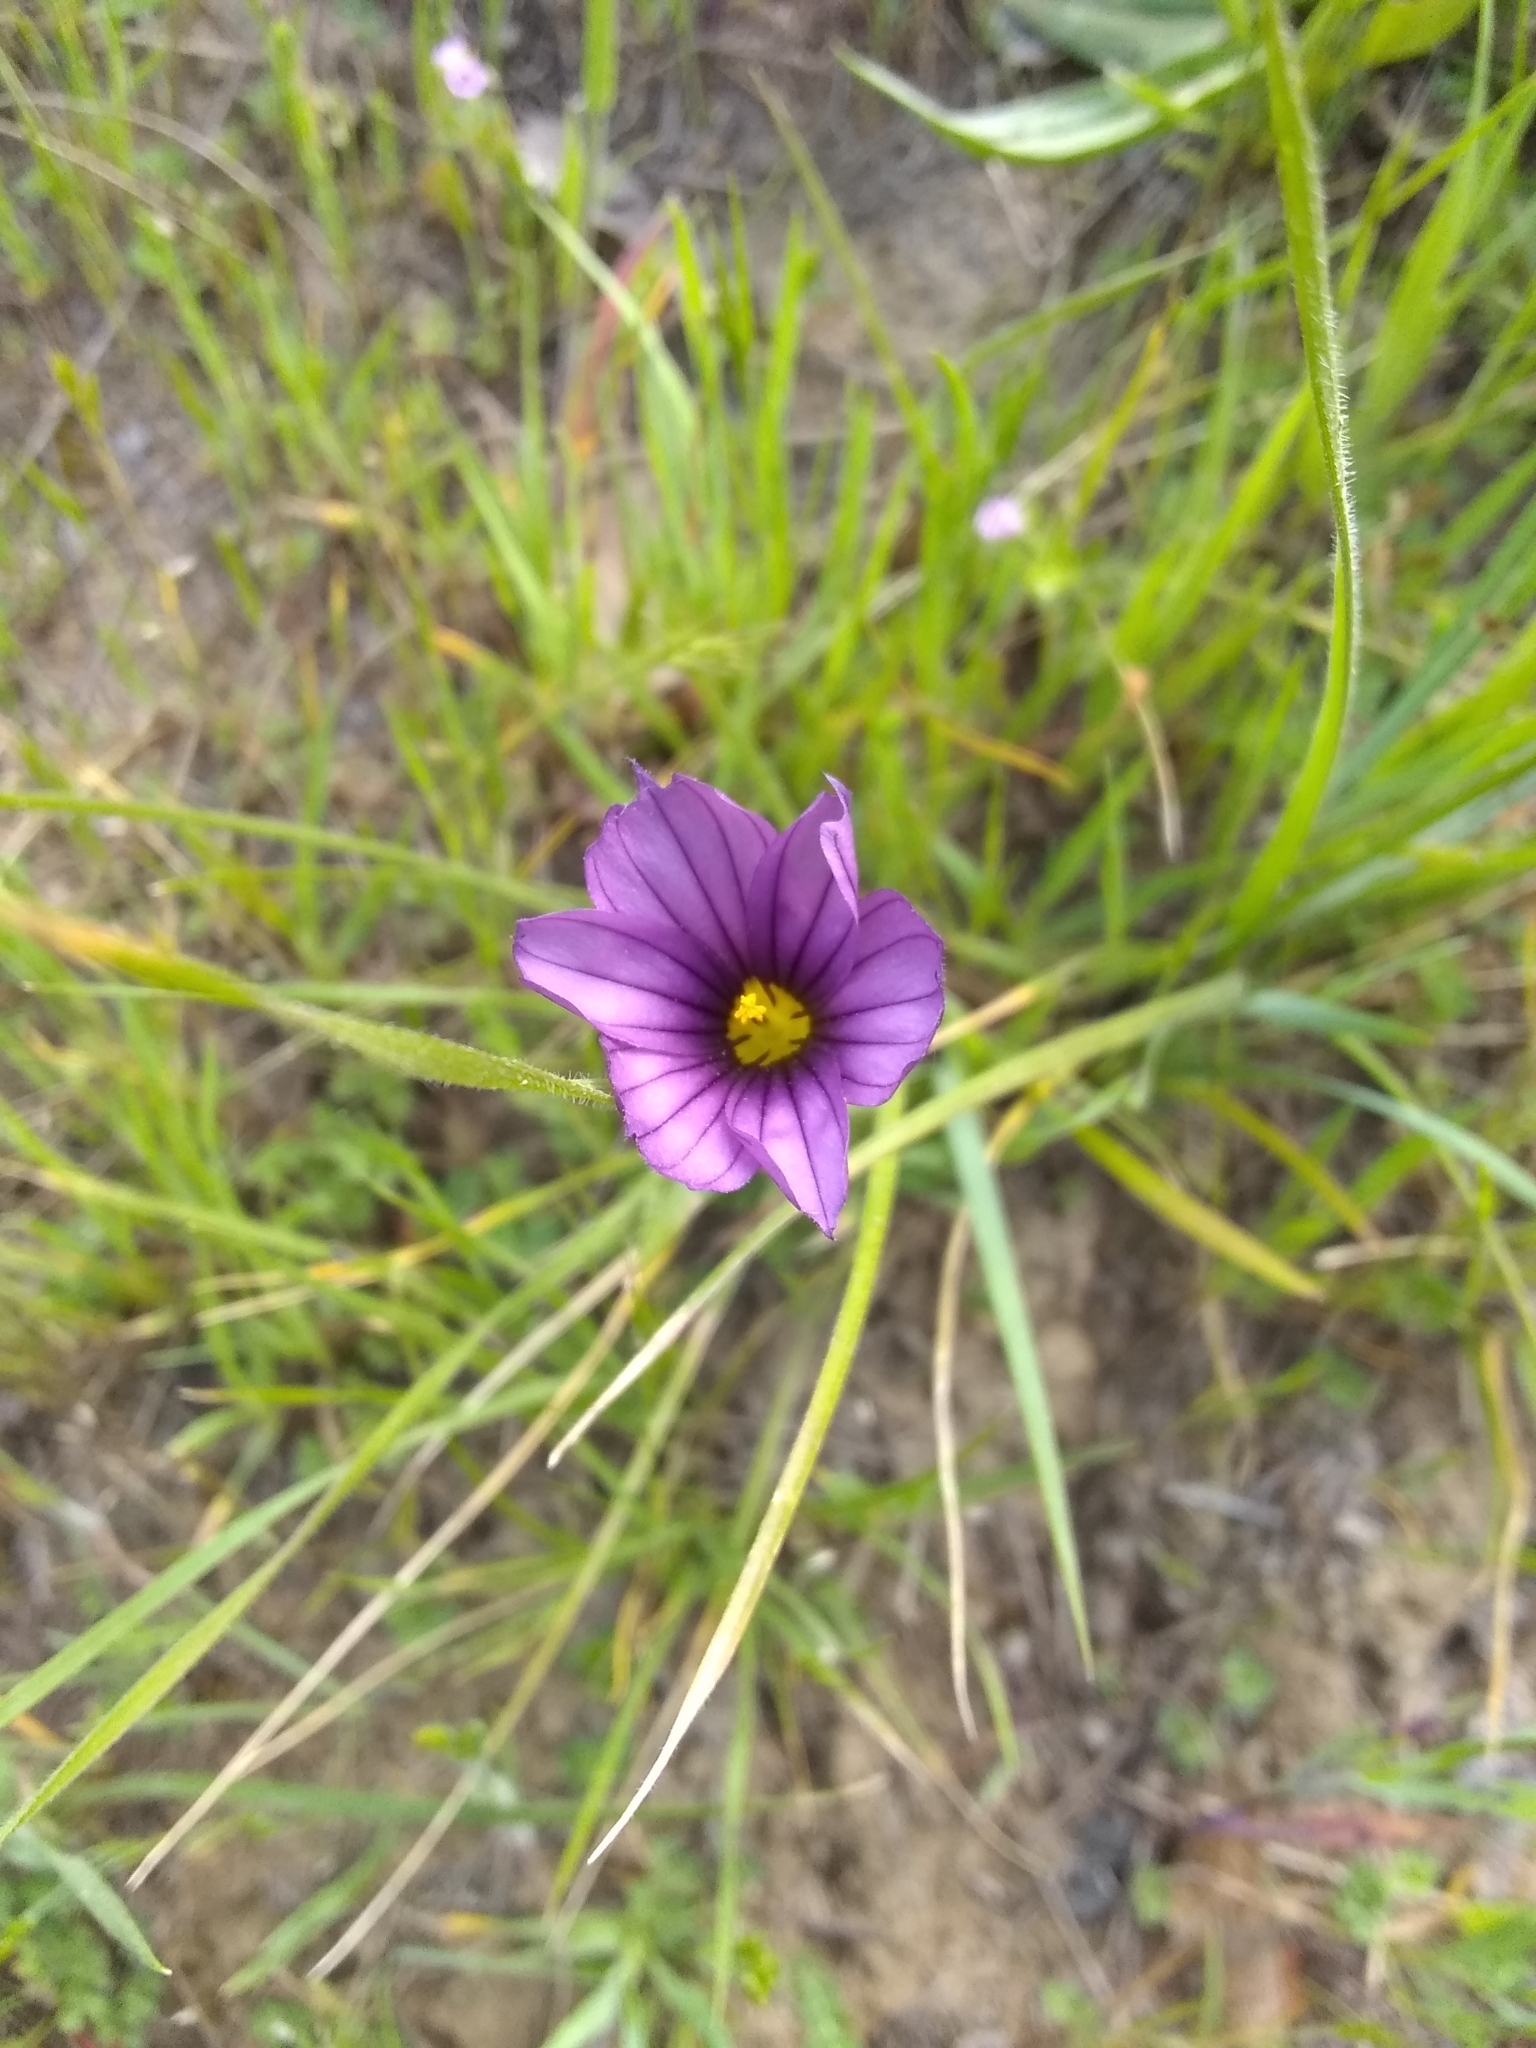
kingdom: Plantae
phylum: Tracheophyta
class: Liliopsida
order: Asparagales
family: Iridaceae
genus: Sisyrinchium
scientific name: Sisyrinchium bellum
